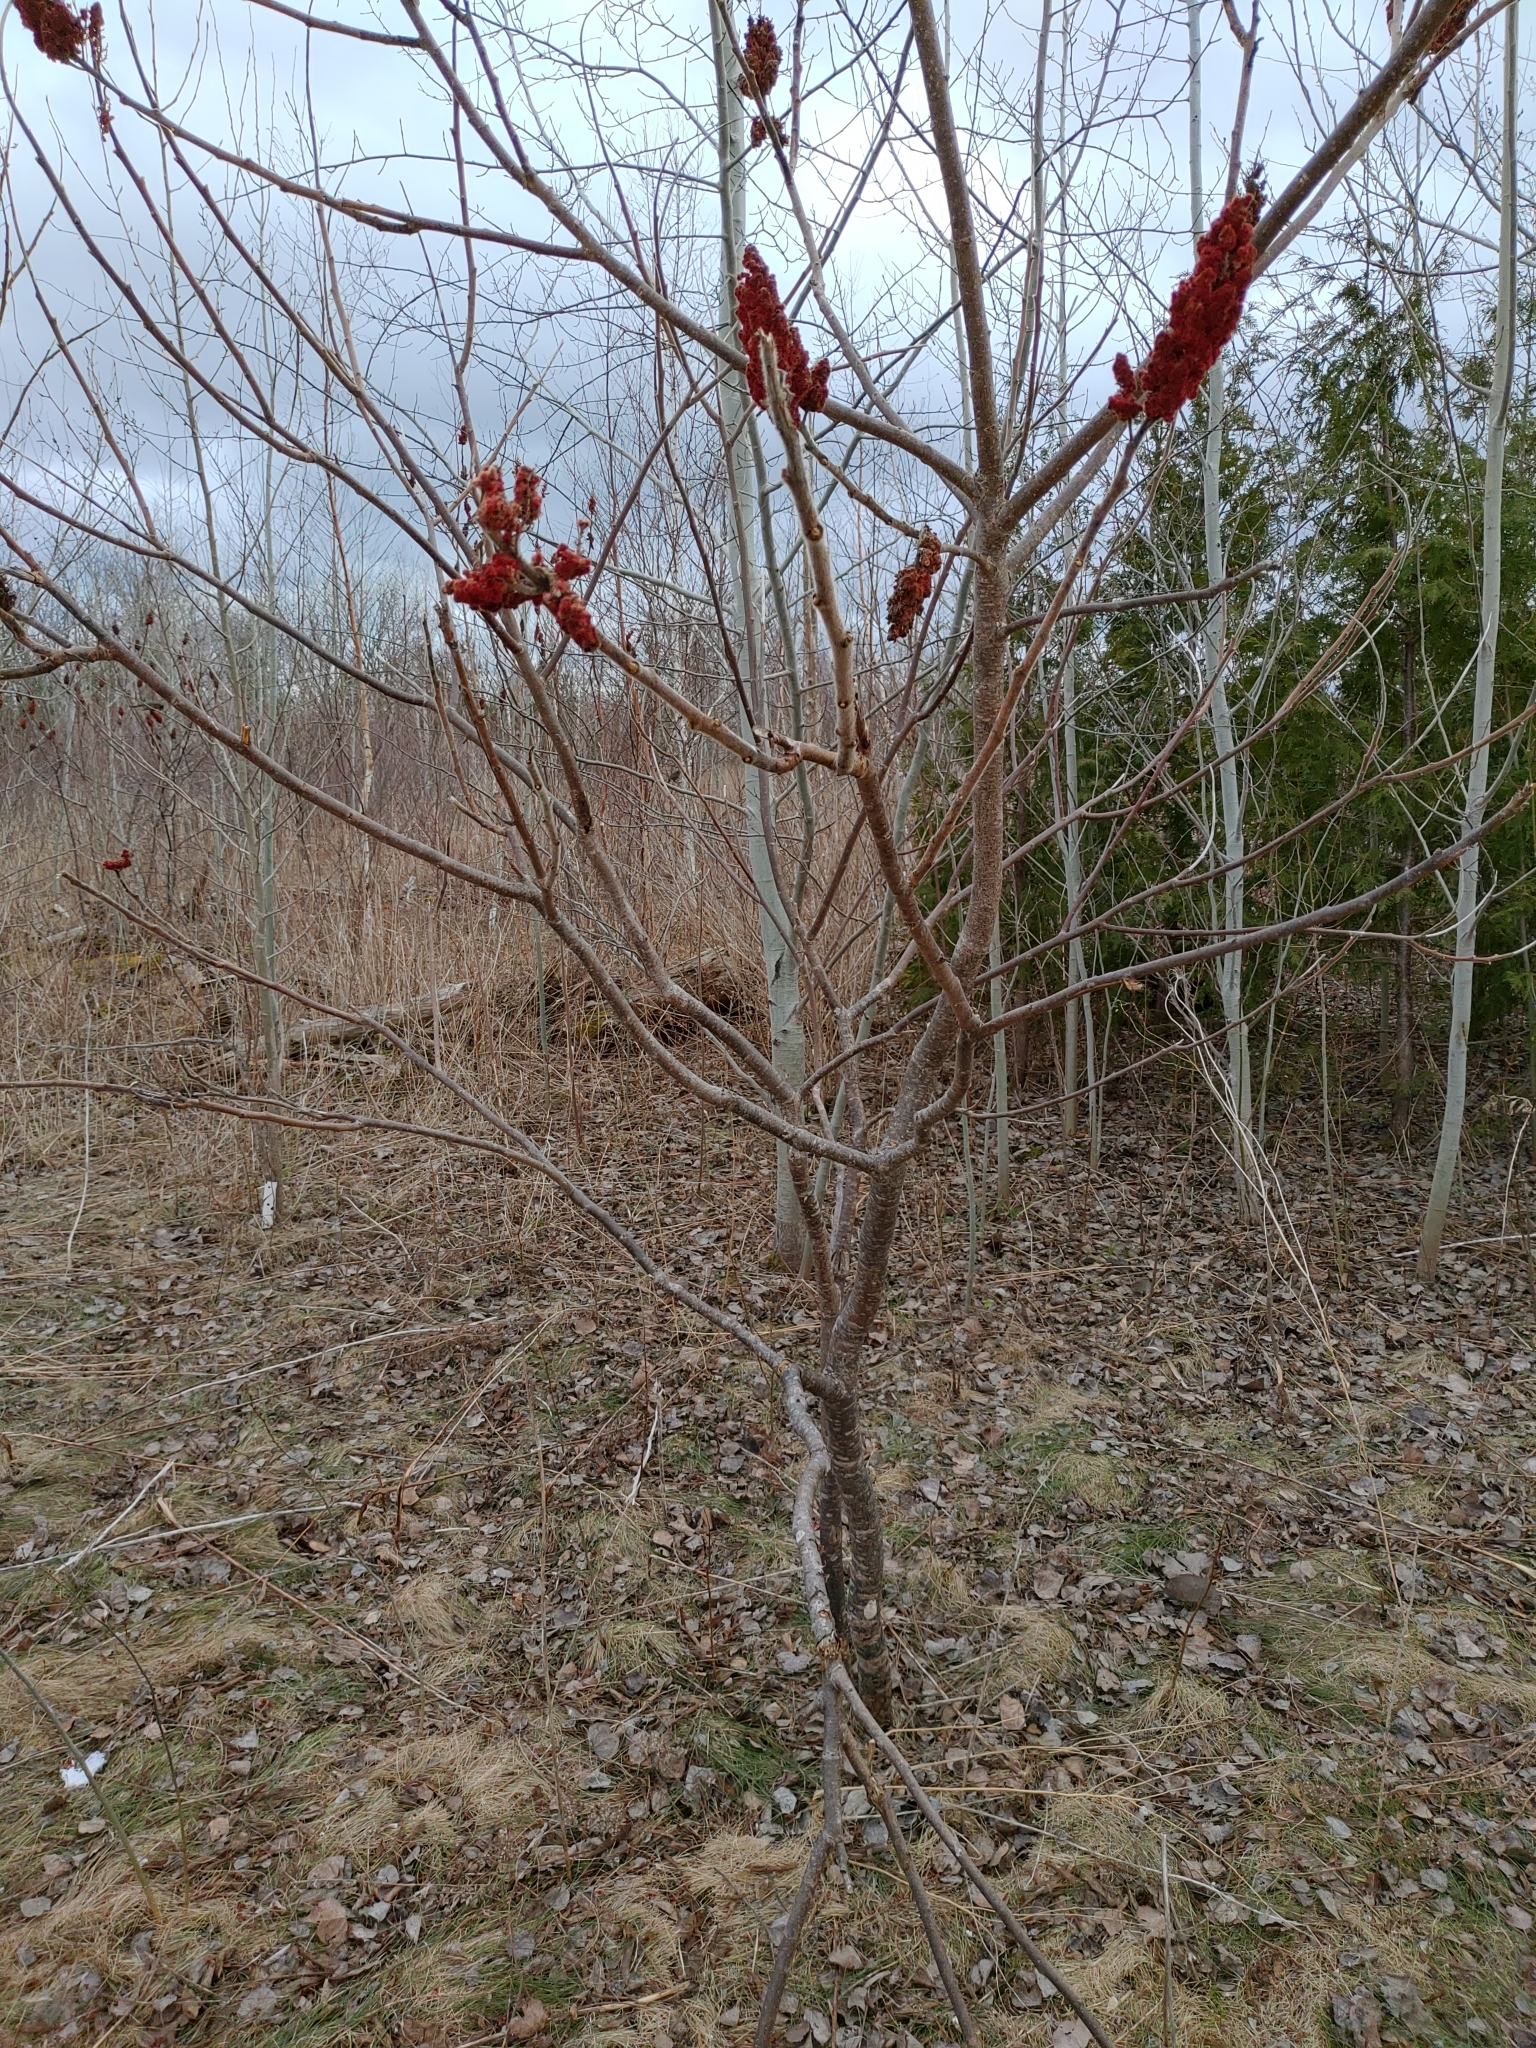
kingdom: Plantae
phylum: Tracheophyta
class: Magnoliopsida
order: Sapindales
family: Anacardiaceae
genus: Rhus
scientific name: Rhus typhina
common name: Staghorn sumac
